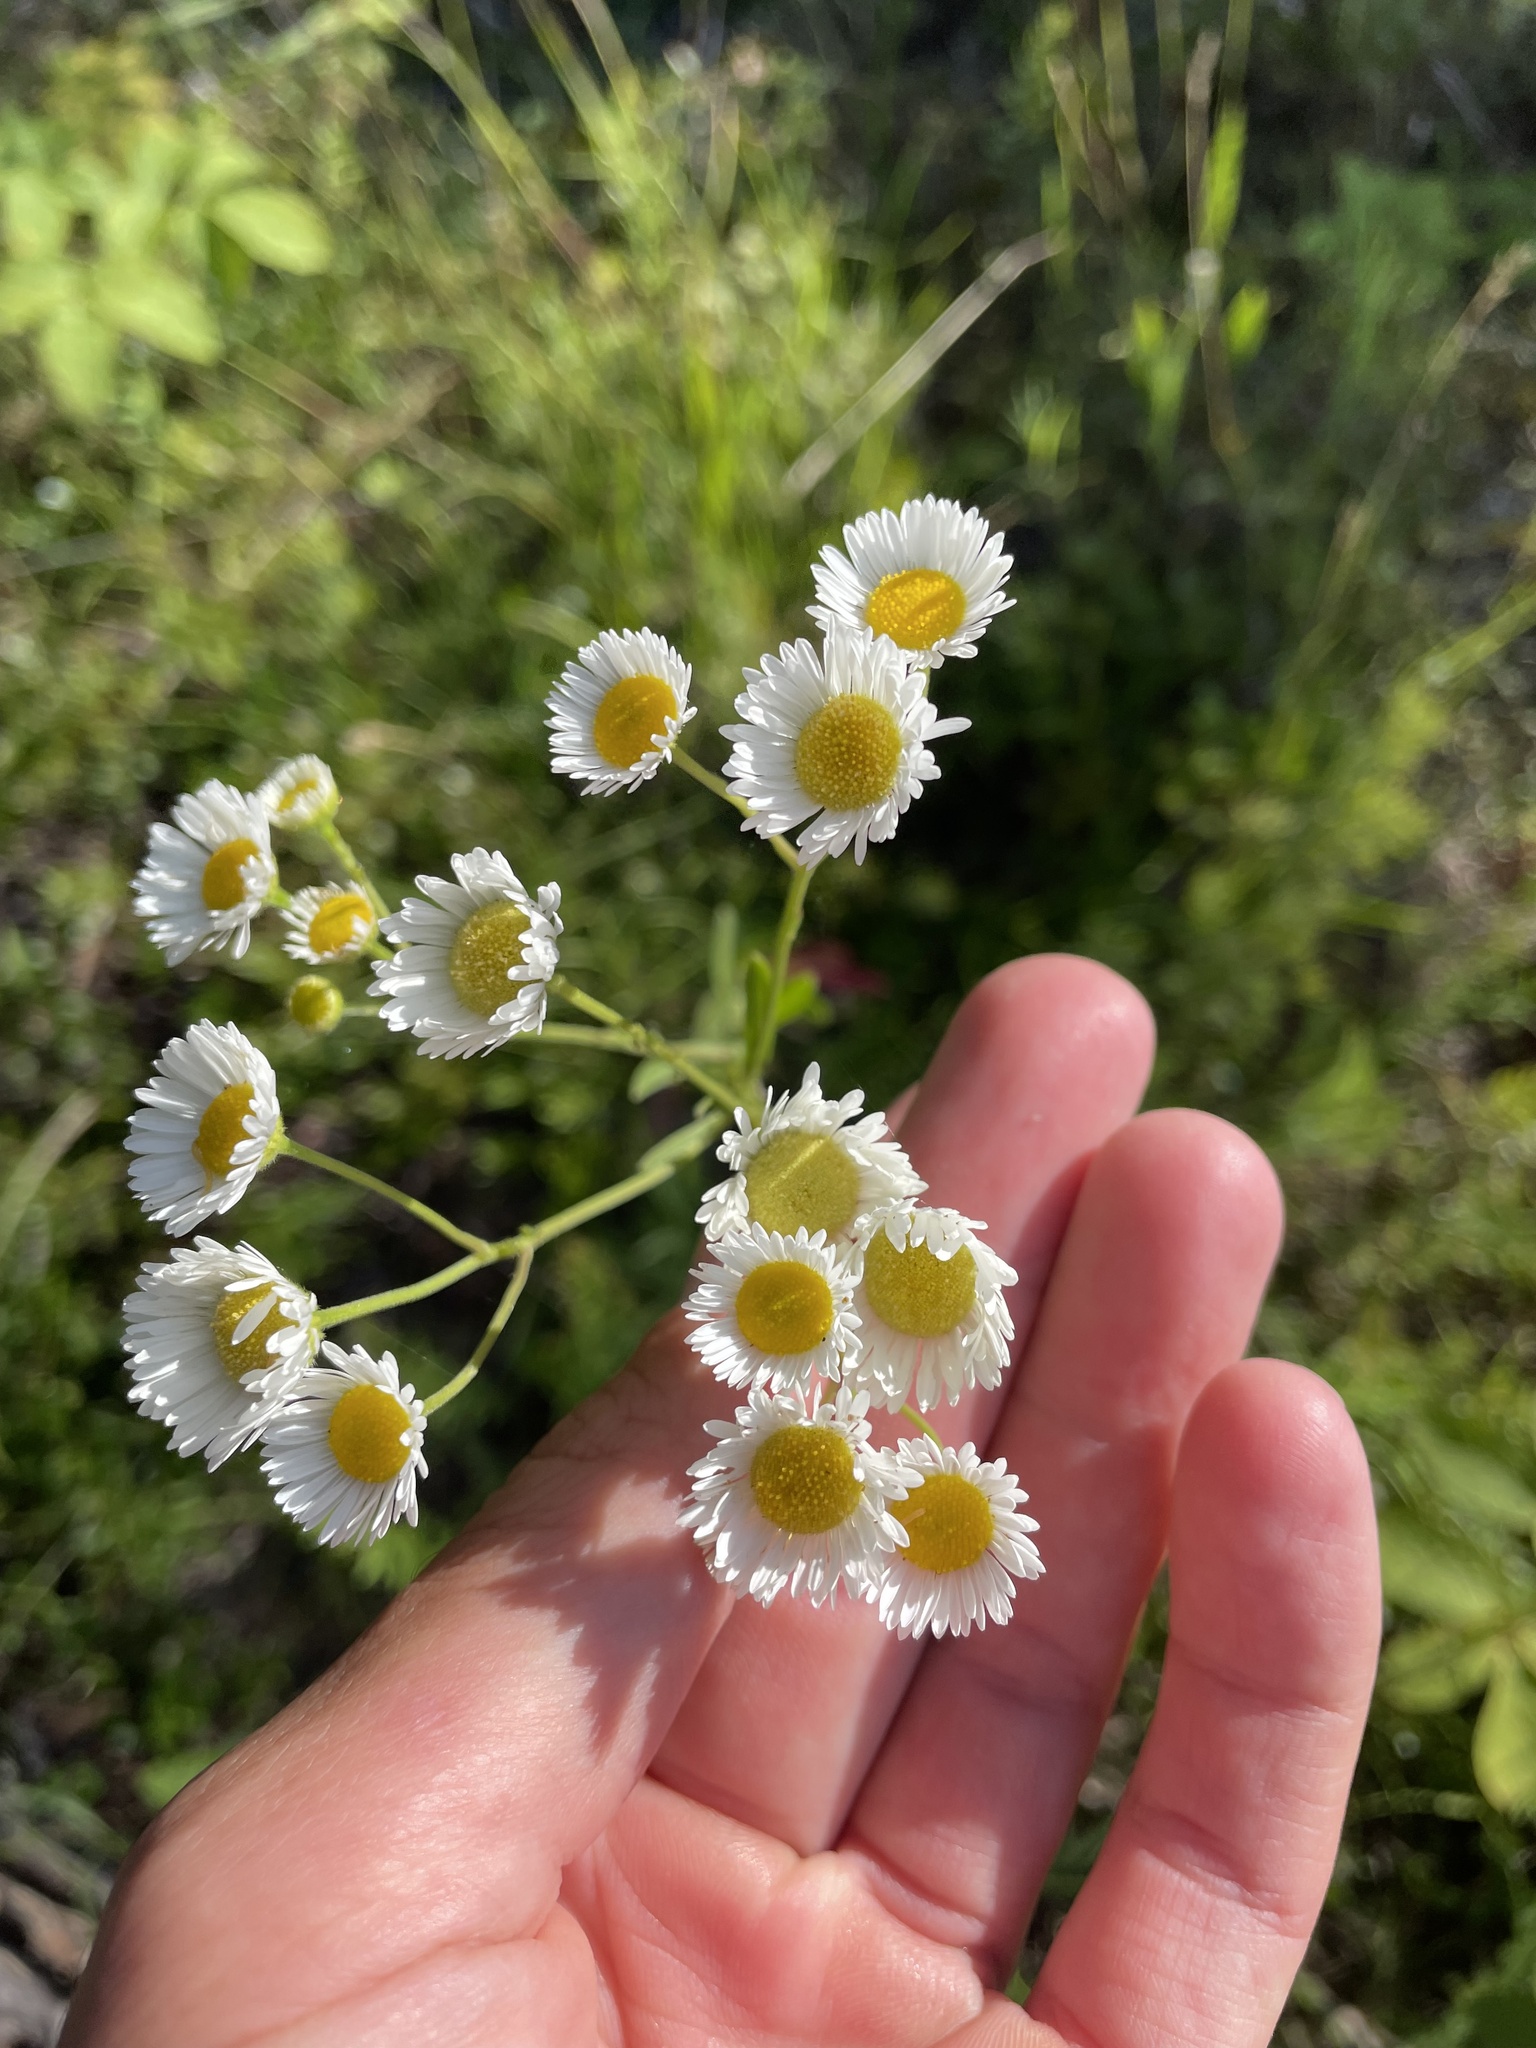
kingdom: Plantae
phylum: Tracheophyta
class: Magnoliopsida
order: Asterales
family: Asteraceae
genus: Erigeron
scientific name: Erigeron strigosus
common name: Common eastern fleabane
